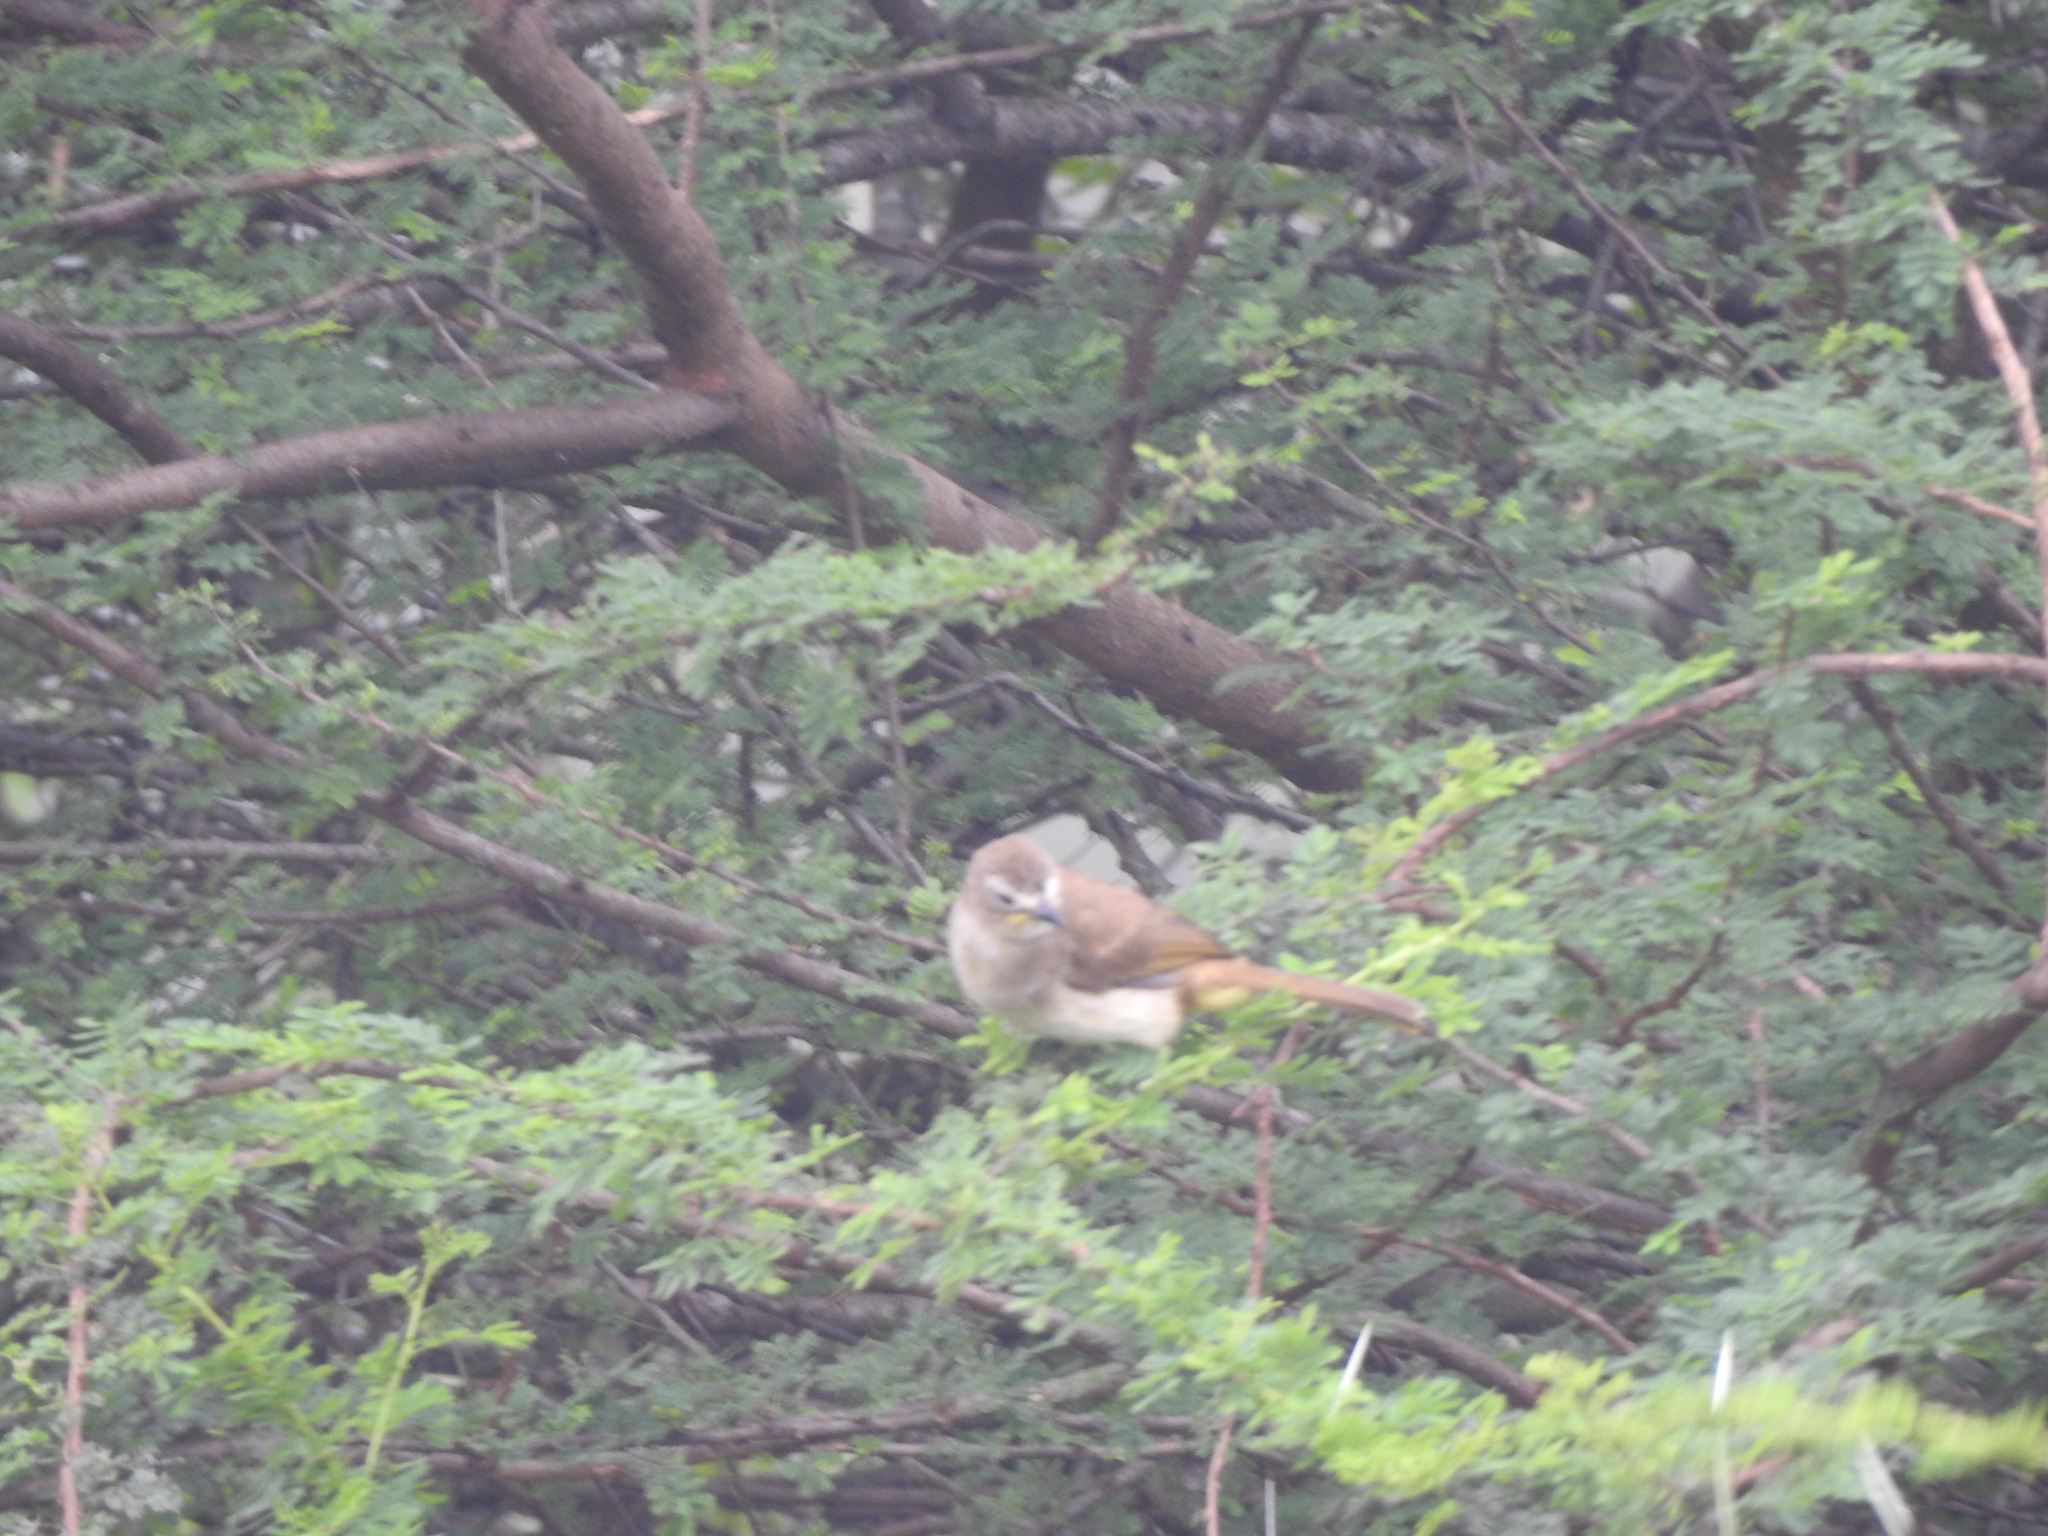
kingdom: Animalia
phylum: Chordata
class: Aves
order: Passeriformes
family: Pycnonotidae
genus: Pycnonotus
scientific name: Pycnonotus luteolus
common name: White-browed bulbul
